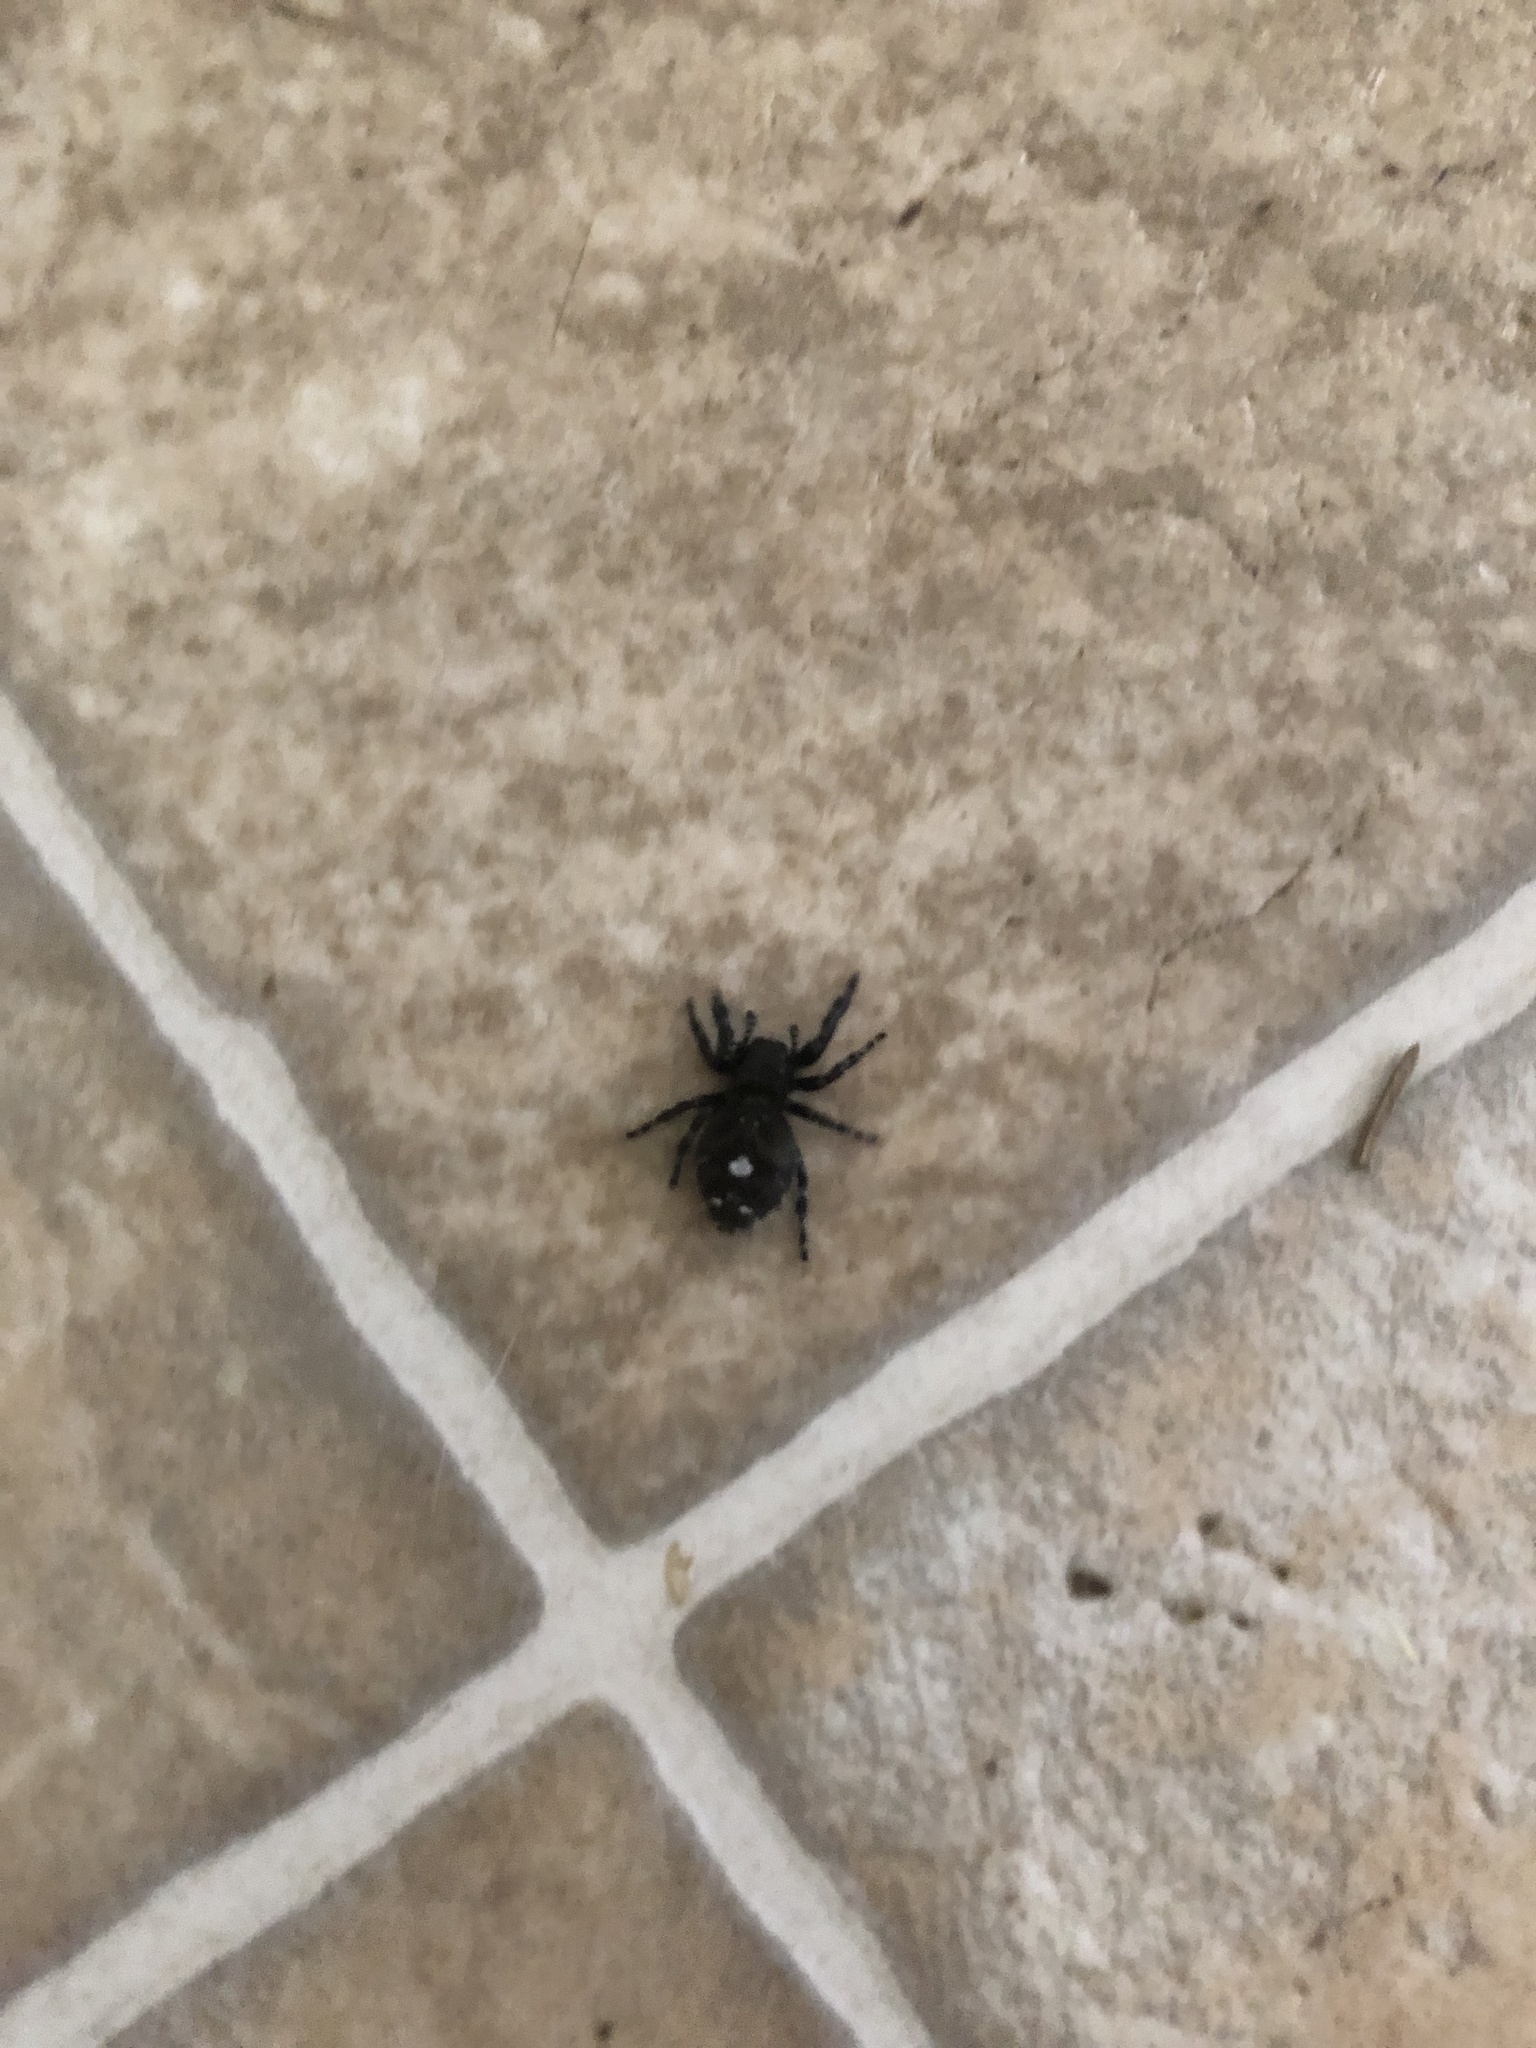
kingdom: Animalia
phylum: Arthropoda
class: Arachnida
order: Araneae
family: Salticidae
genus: Phidippus
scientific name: Phidippus audax
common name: Bold jumper
